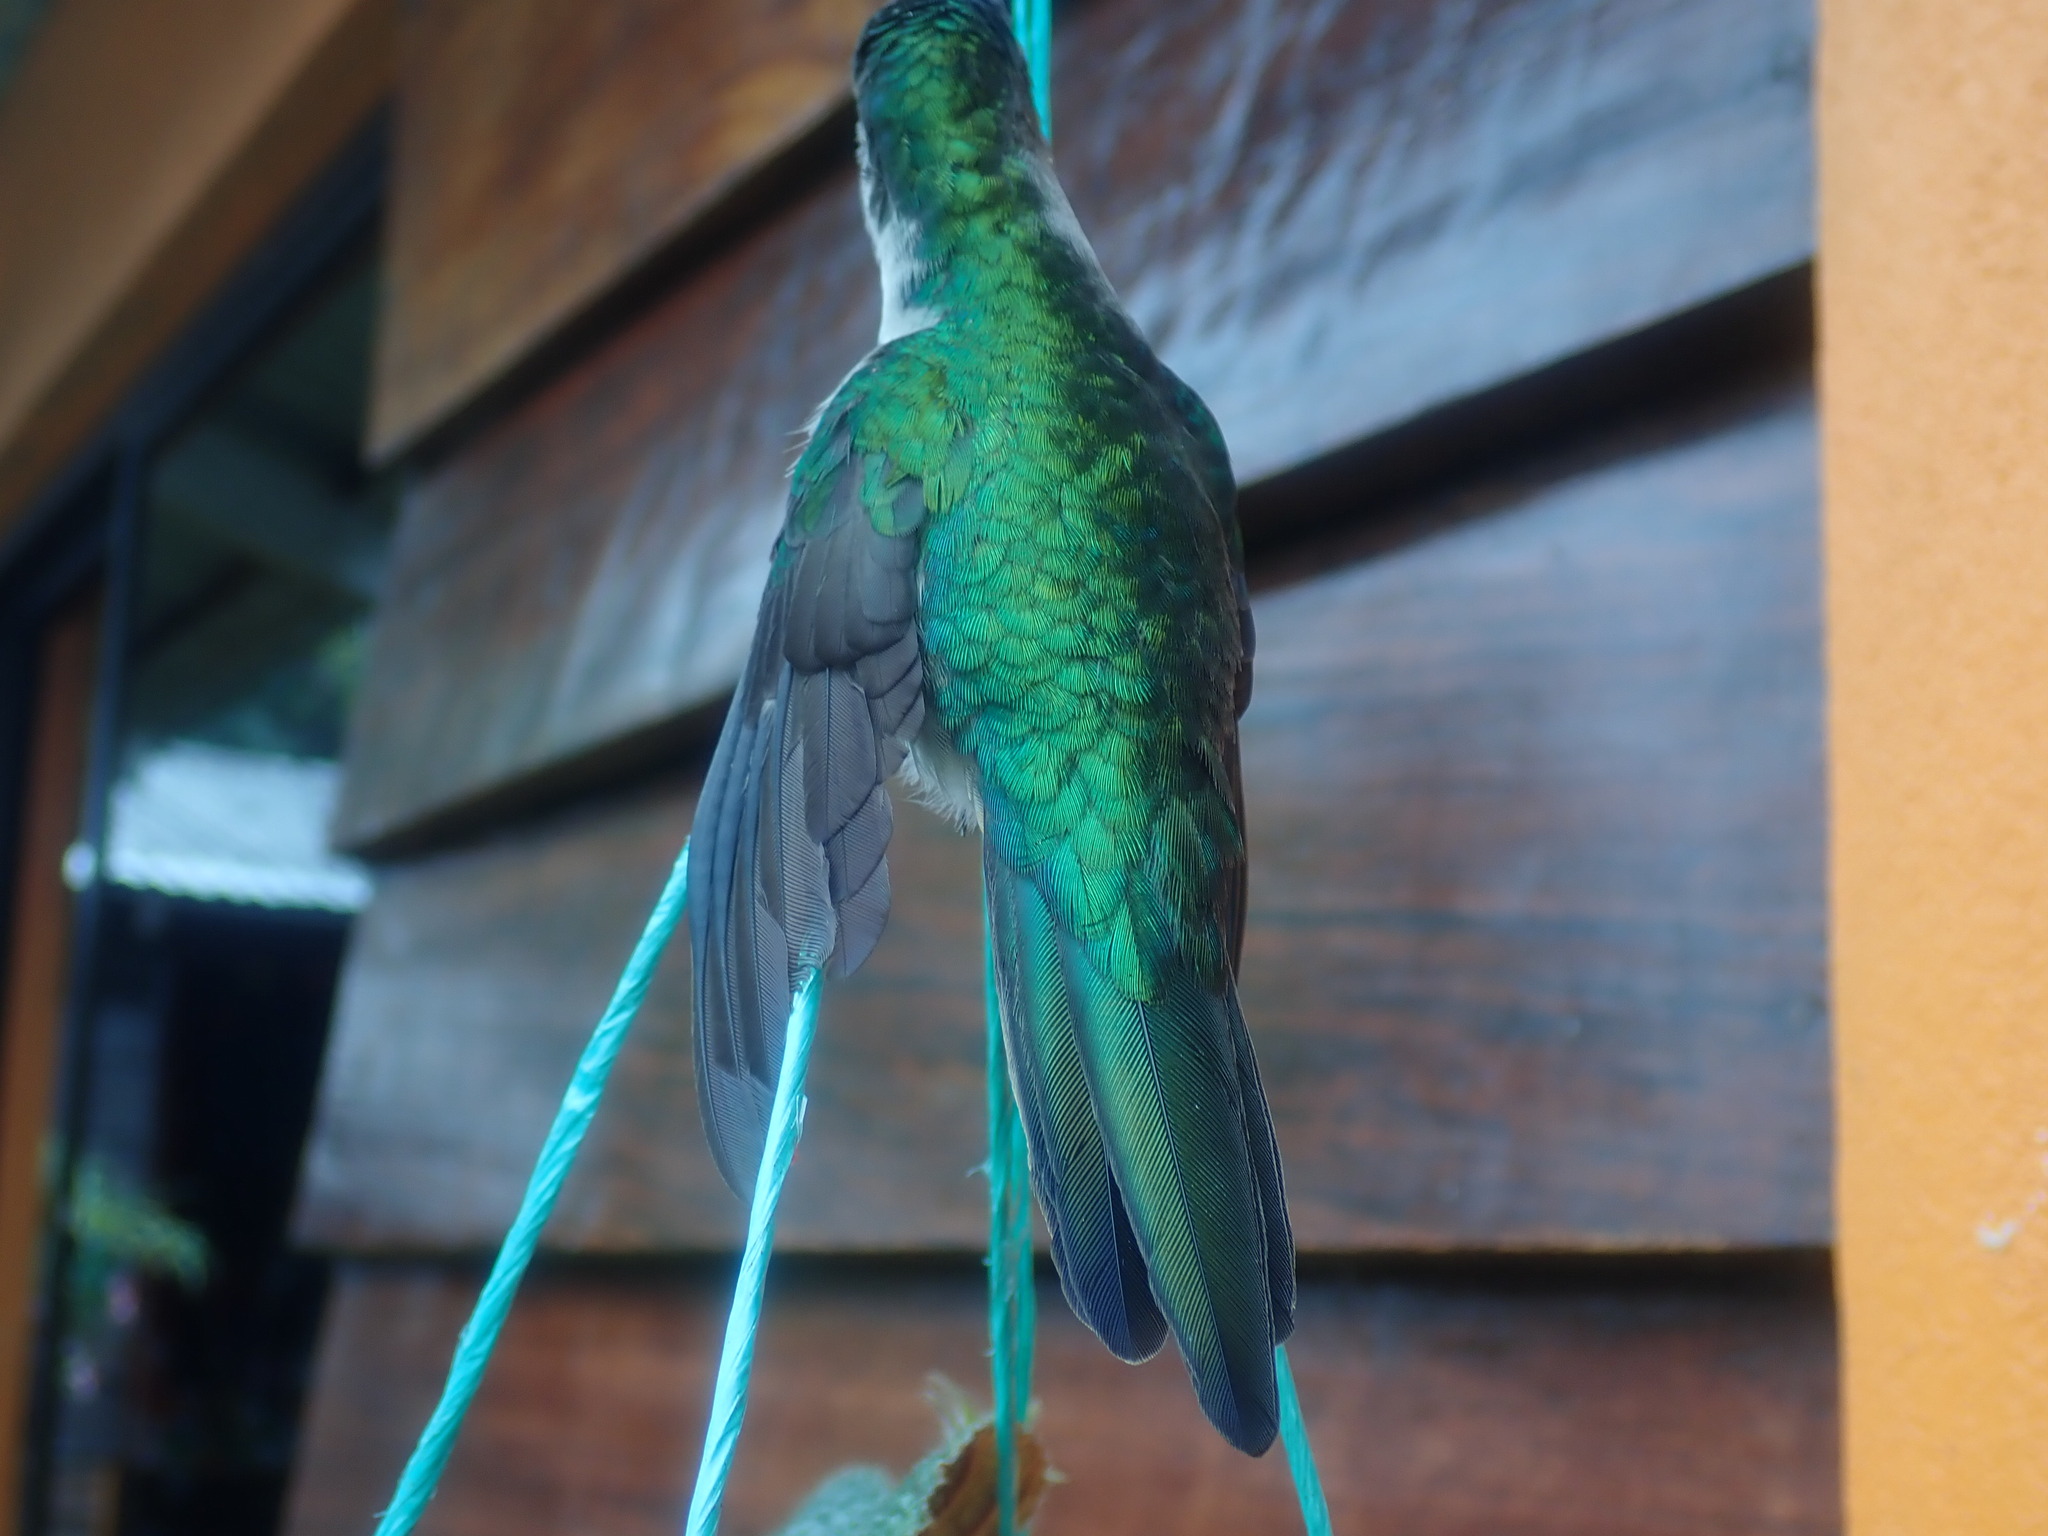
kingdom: Animalia
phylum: Chordata
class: Aves
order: Apodiformes
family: Trochilidae
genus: Pampa
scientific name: Pampa curvipennis
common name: Curve-winged sabrewing
